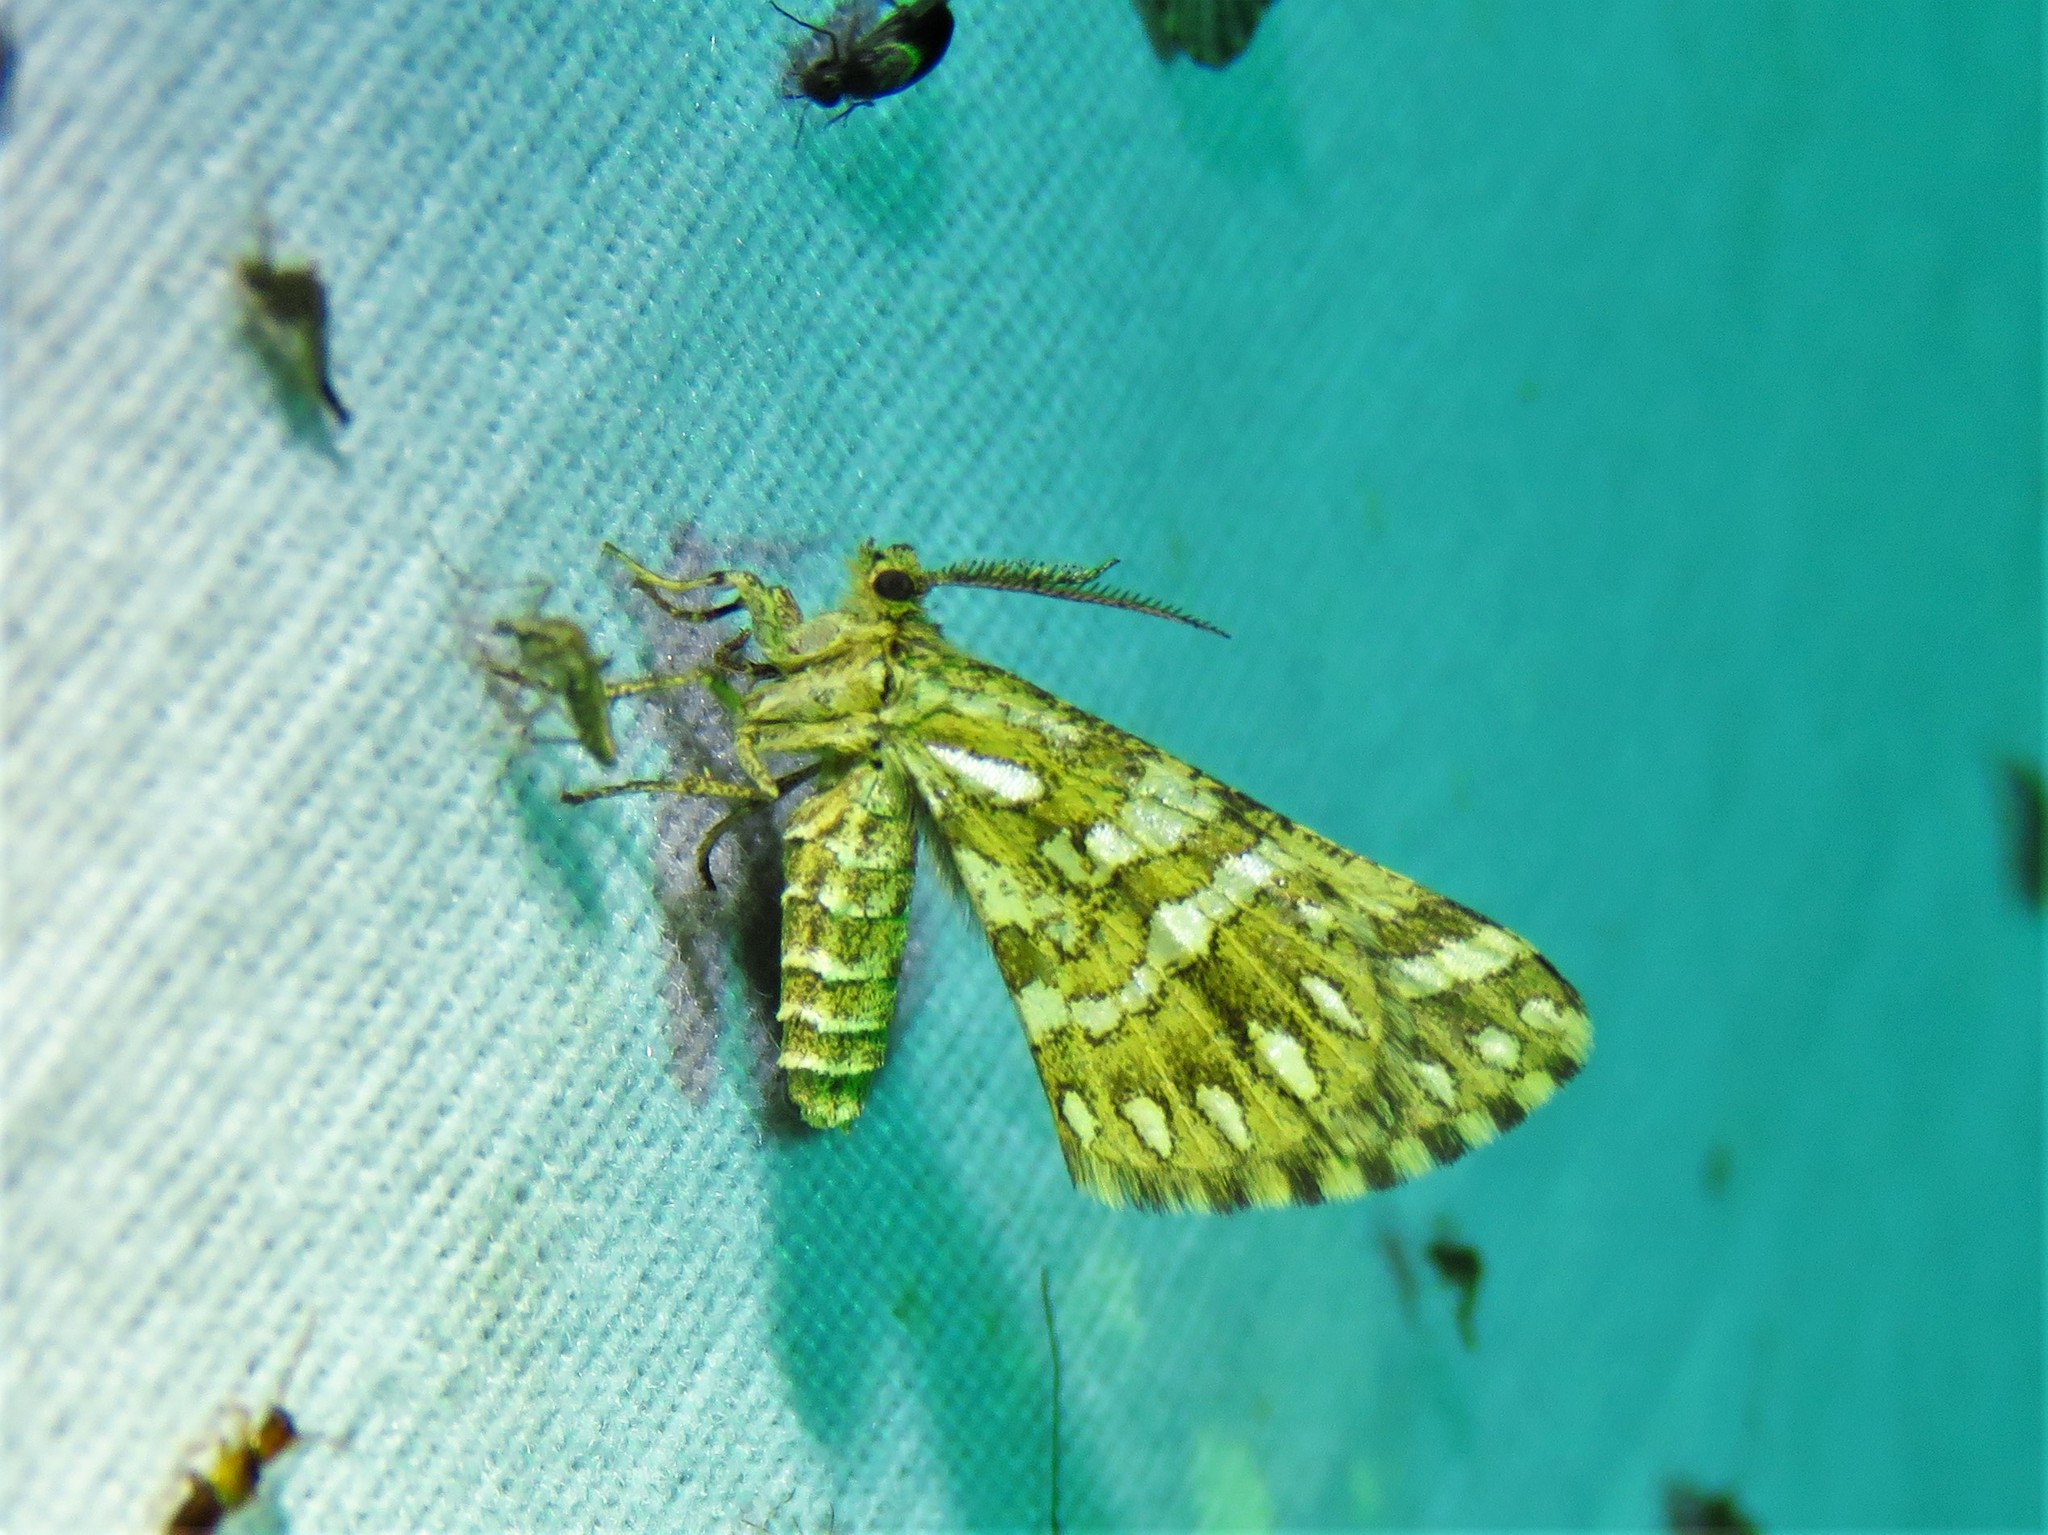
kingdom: Animalia
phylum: Arthropoda
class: Insecta
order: Lepidoptera
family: Geometridae
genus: Narraga
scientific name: Narraga fimetaria
